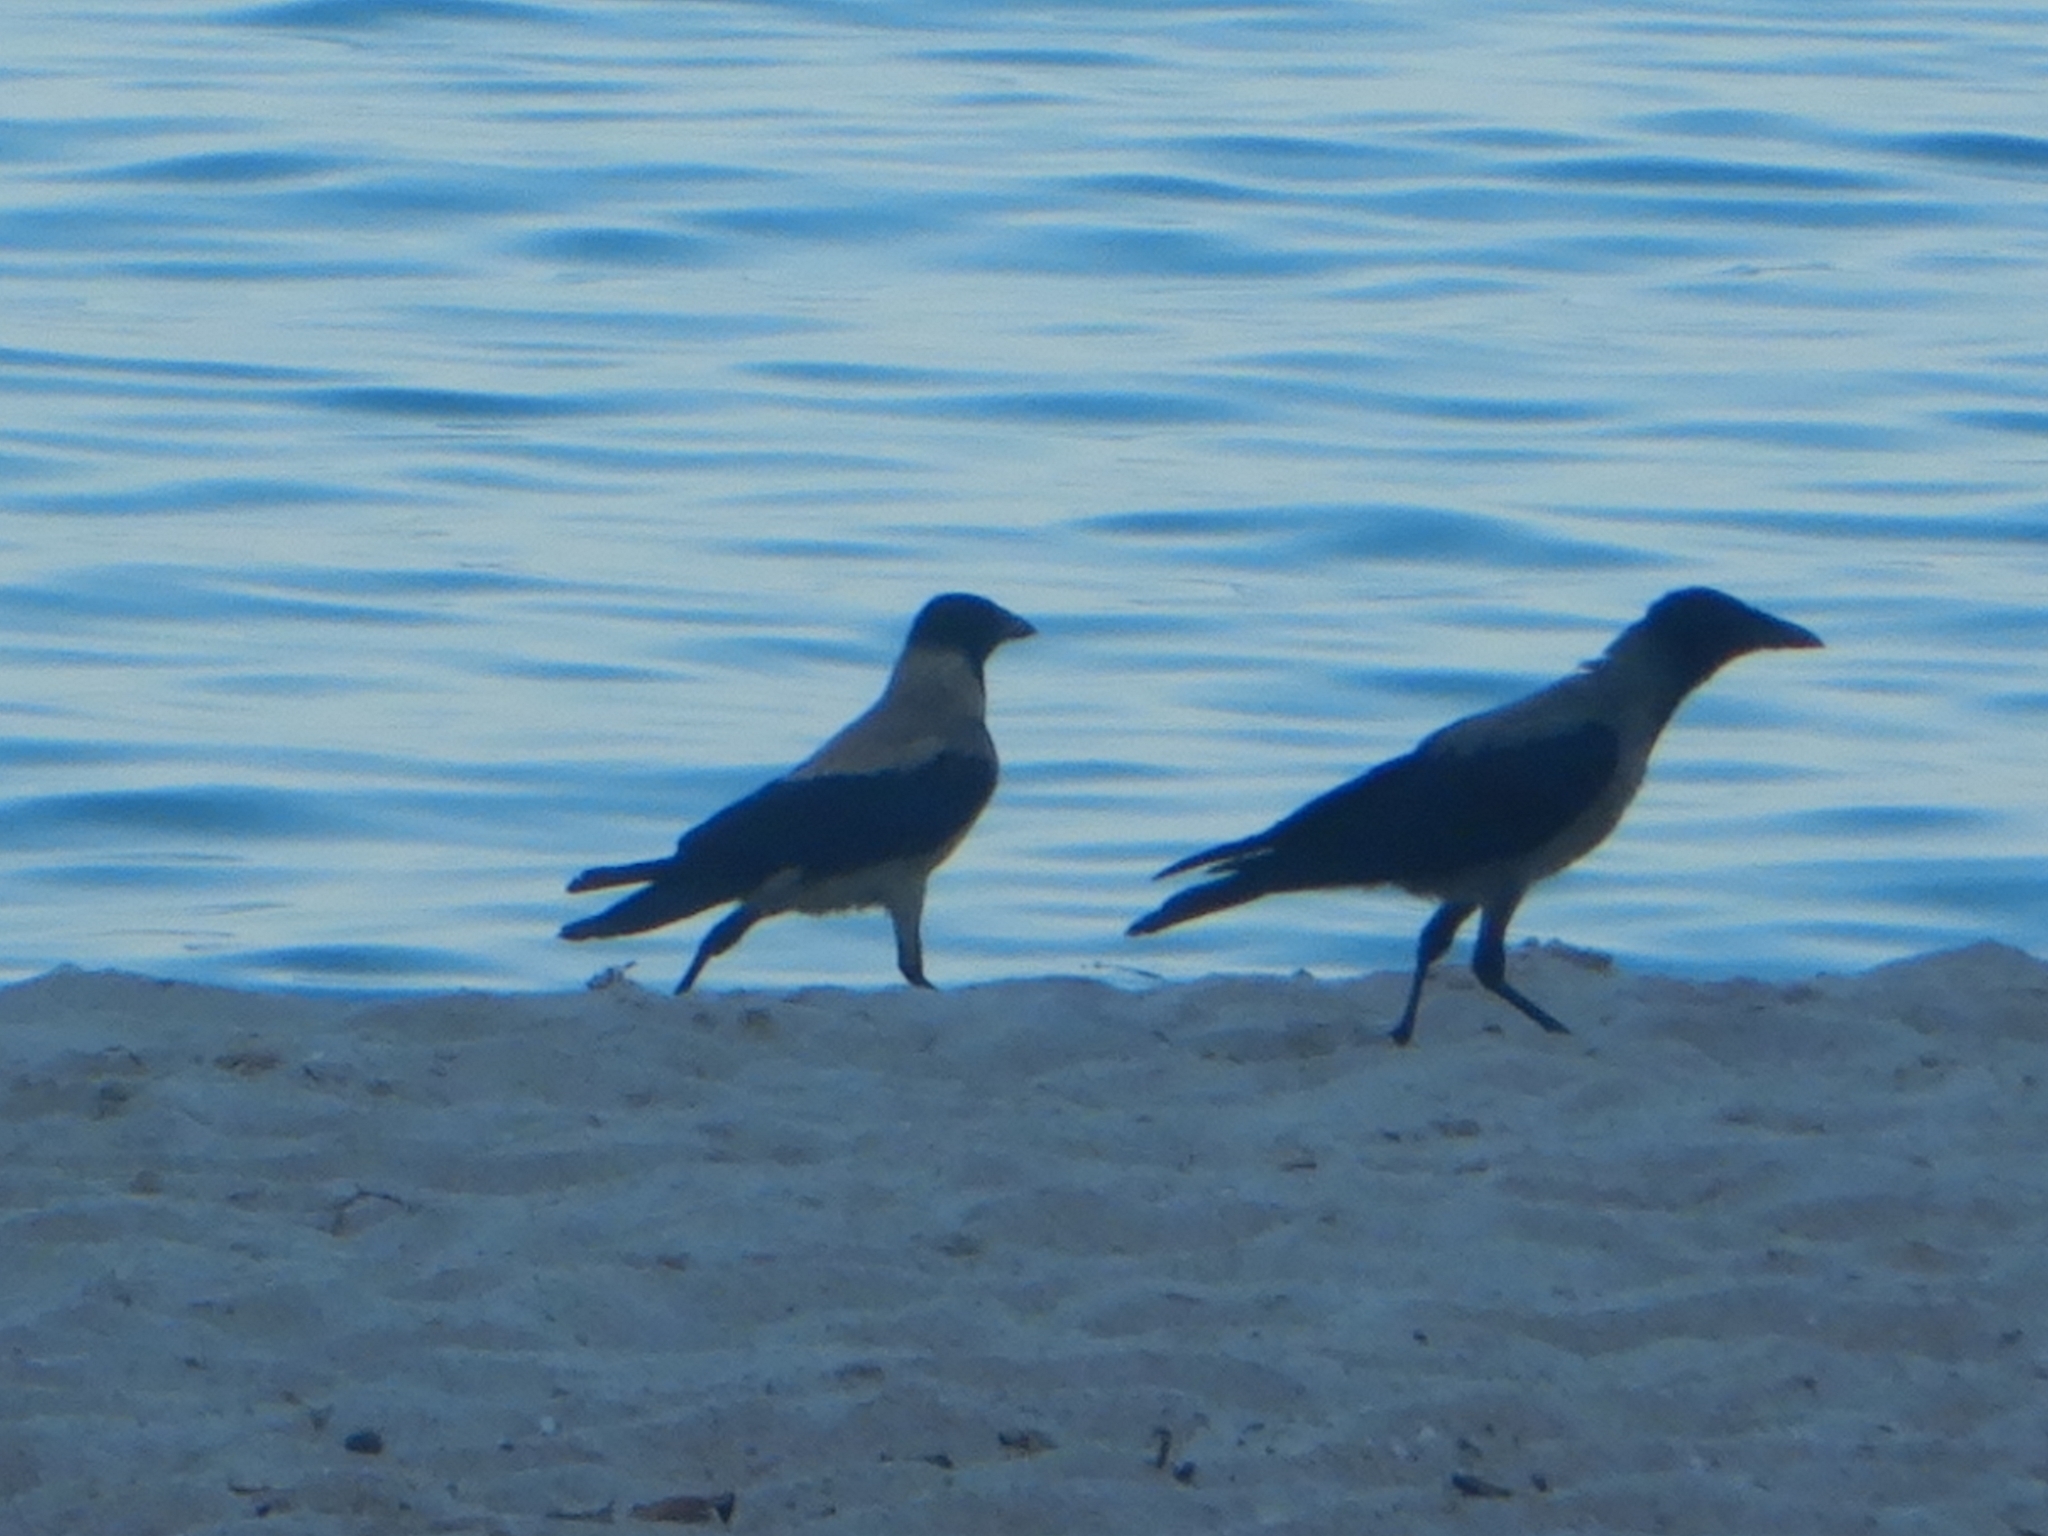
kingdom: Animalia
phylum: Chordata
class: Aves
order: Passeriformes
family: Corvidae
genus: Corvus
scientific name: Corvus cornix
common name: Hooded crow
